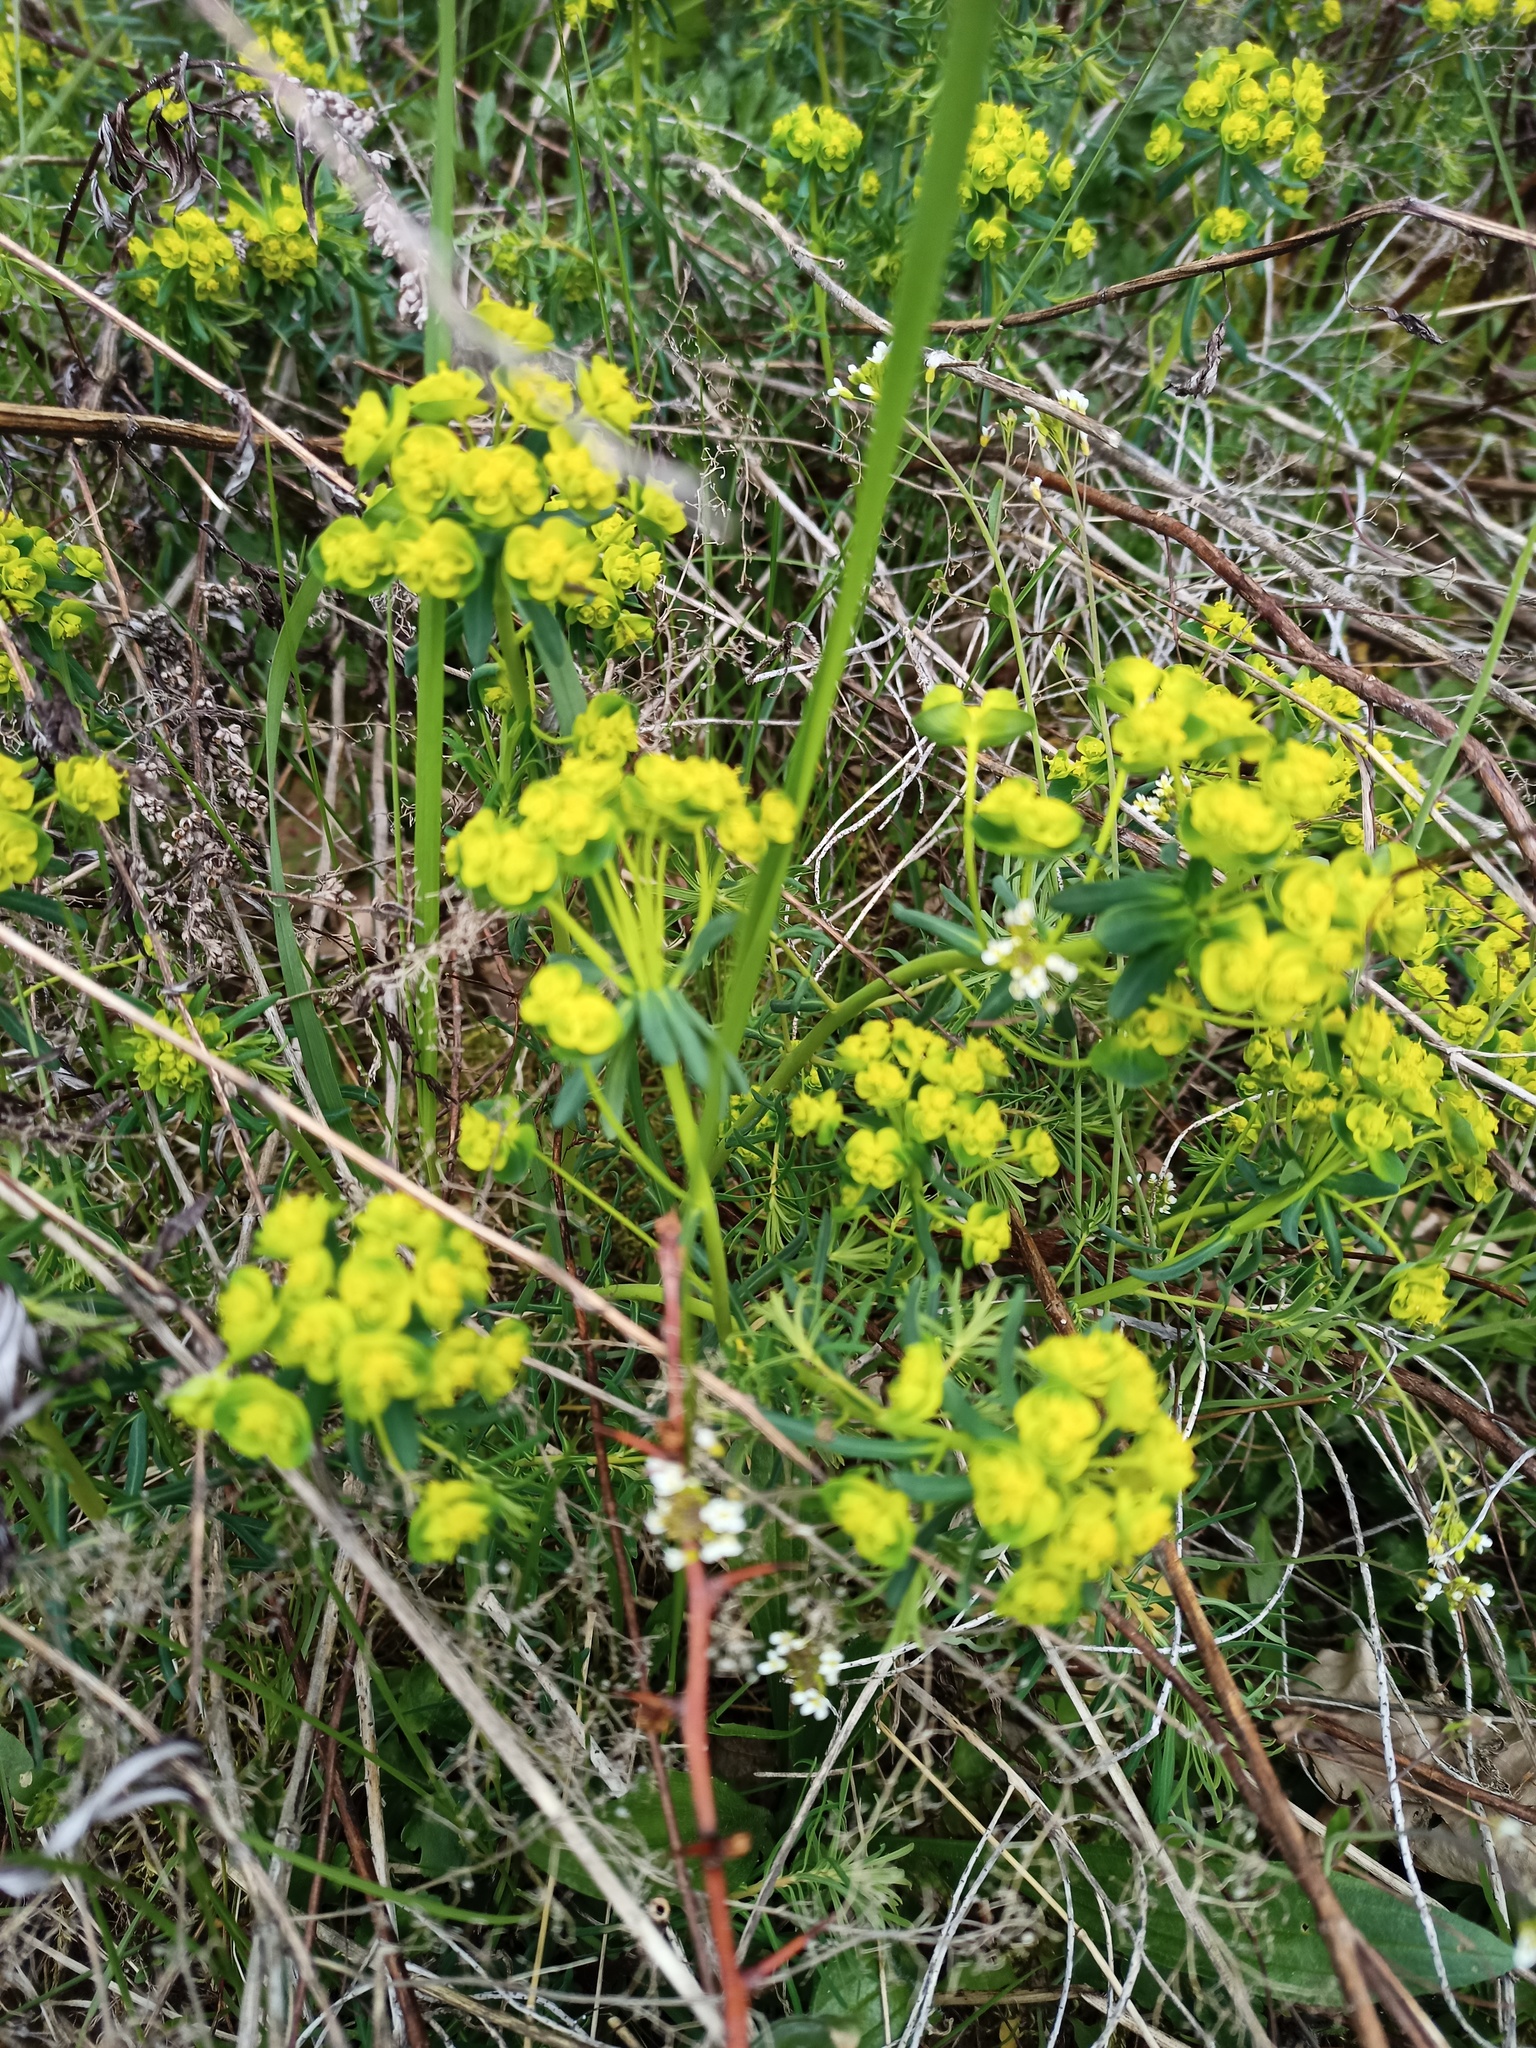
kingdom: Plantae
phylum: Tracheophyta
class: Magnoliopsida
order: Malpighiales
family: Euphorbiaceae
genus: Euphorbia
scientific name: Euphorbia cyparissias
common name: Cypress spurge
